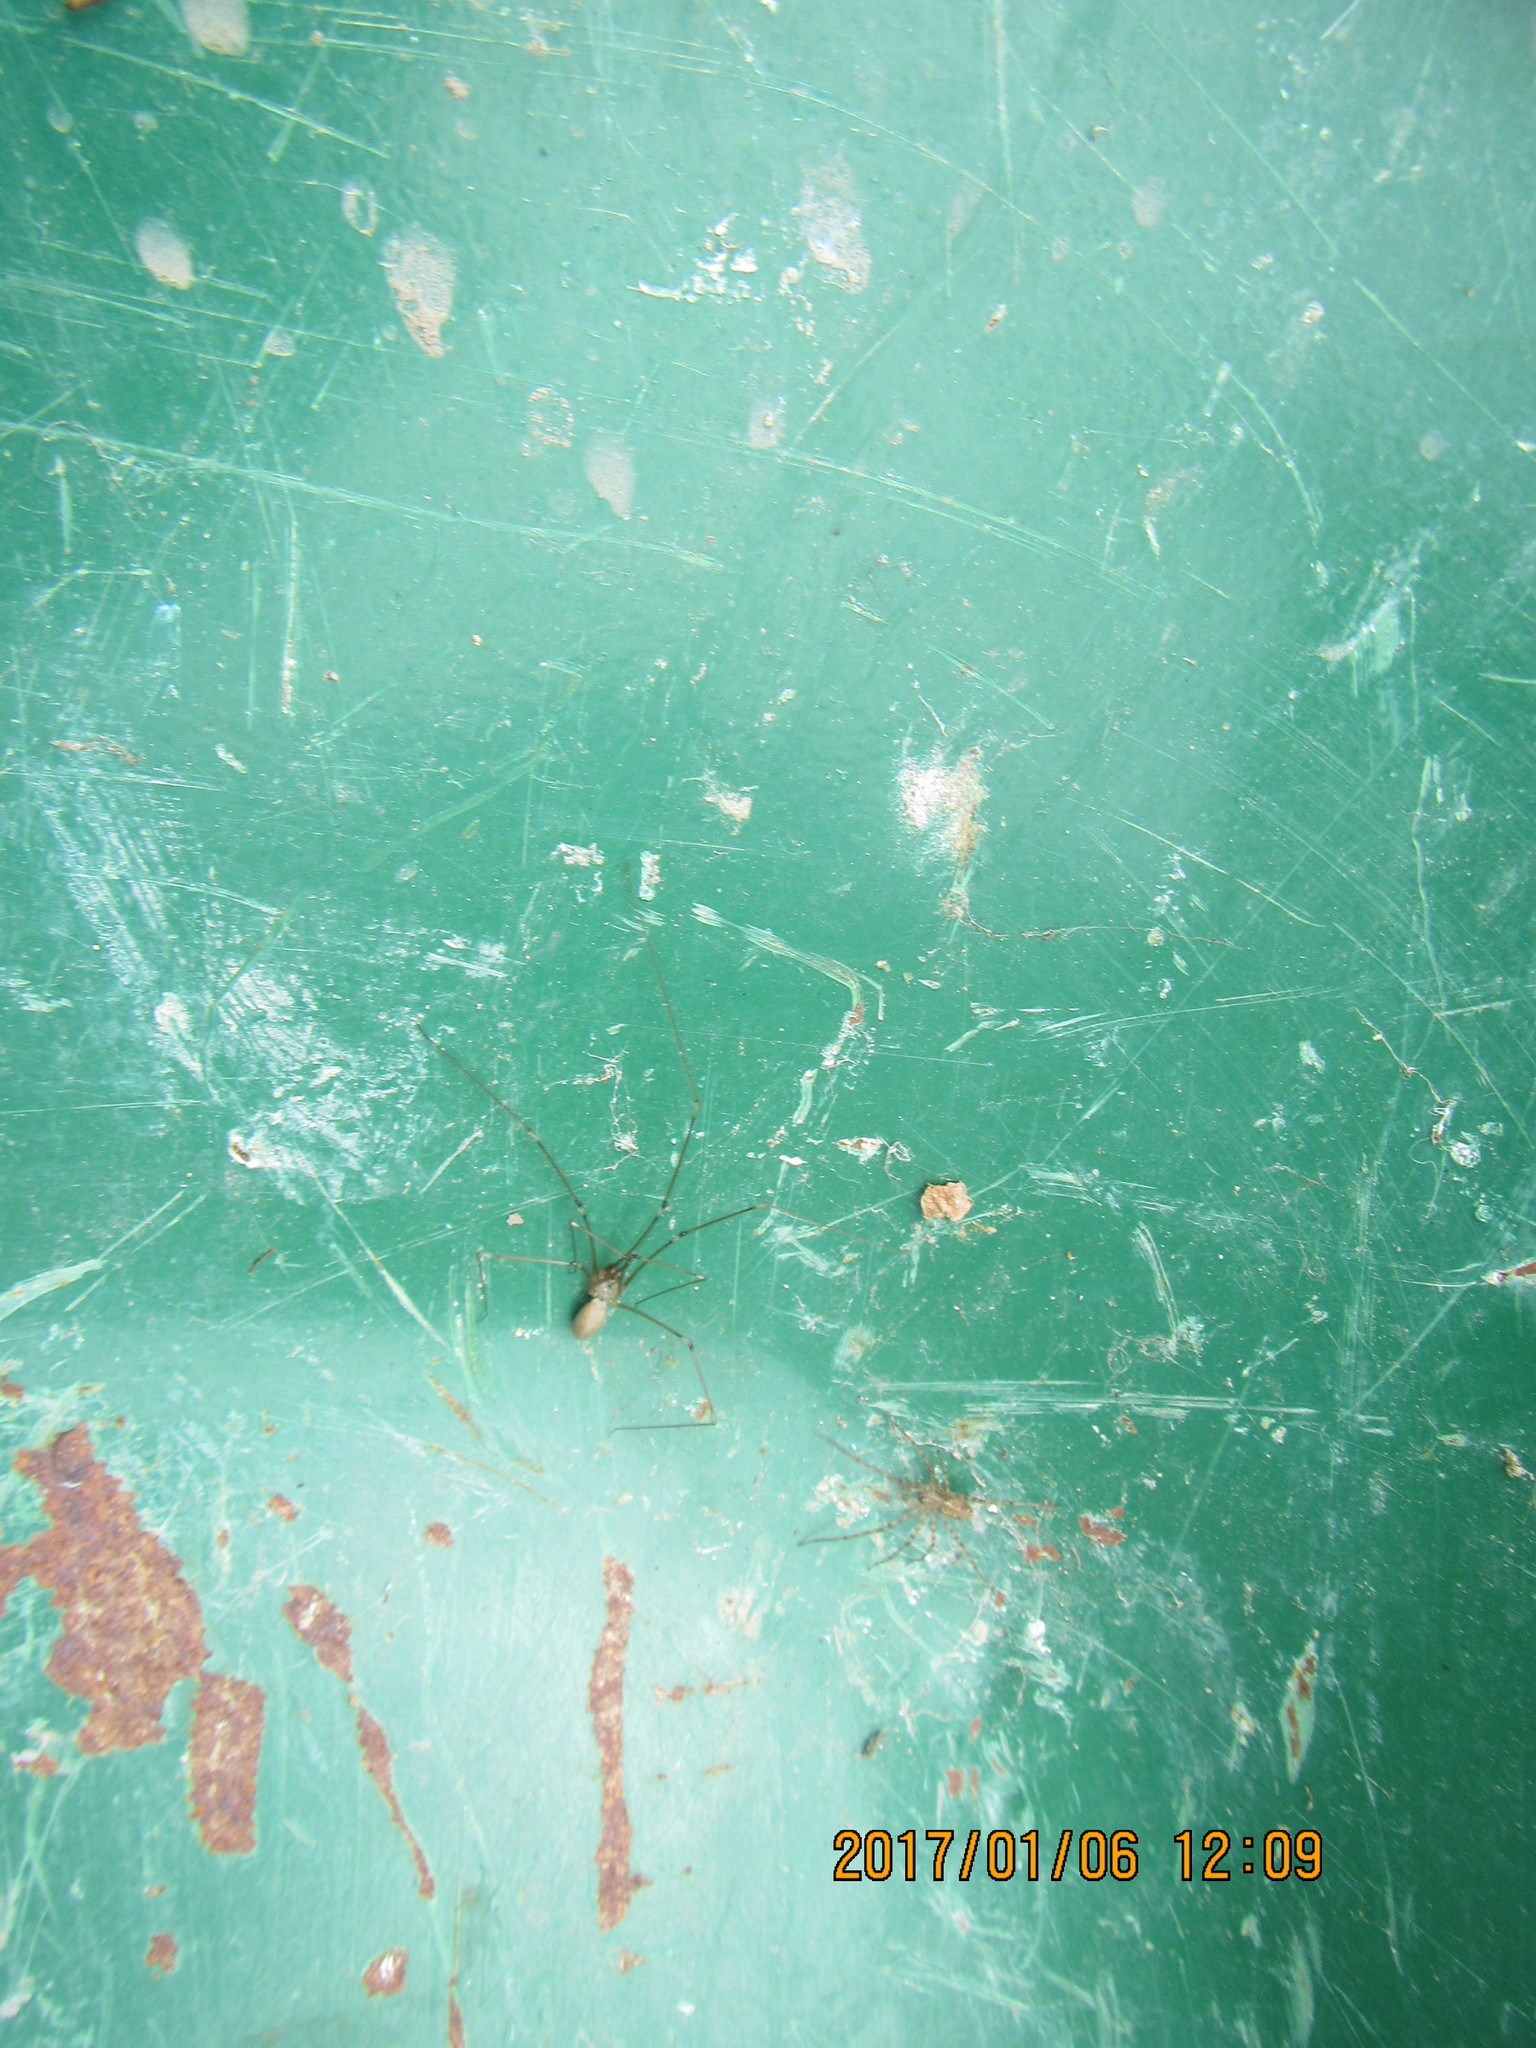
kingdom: Animalia
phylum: Arthropoda
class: Arachnida
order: Araneae
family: Stiphidiidae
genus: Stiphidion
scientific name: Stiphidion facetum
